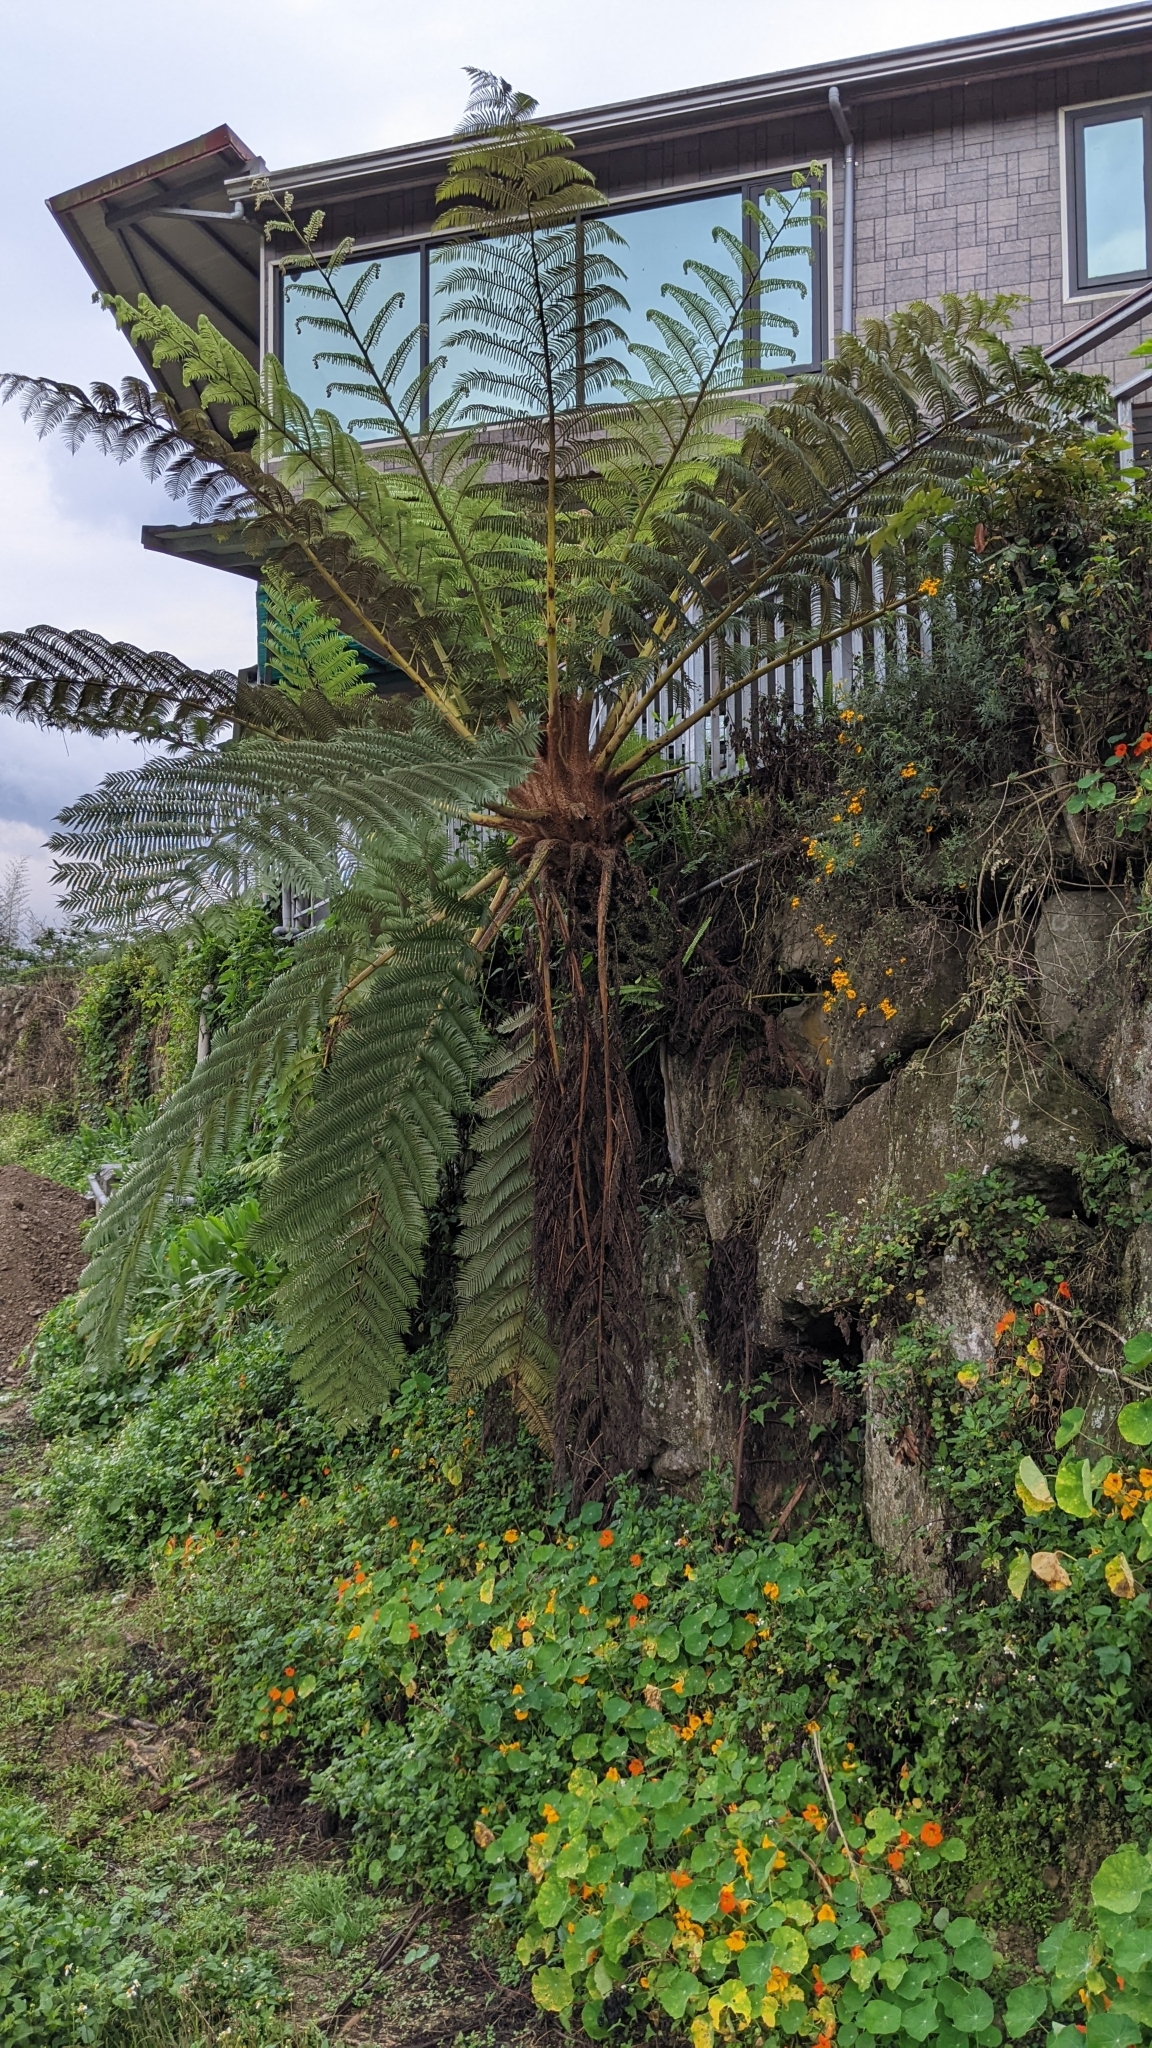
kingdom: Plantae
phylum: Tracheophyta
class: Polypodiopsida
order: Cyatheales
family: Cyatheaceae
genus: Alsophila
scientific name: Alsophila lepifera
